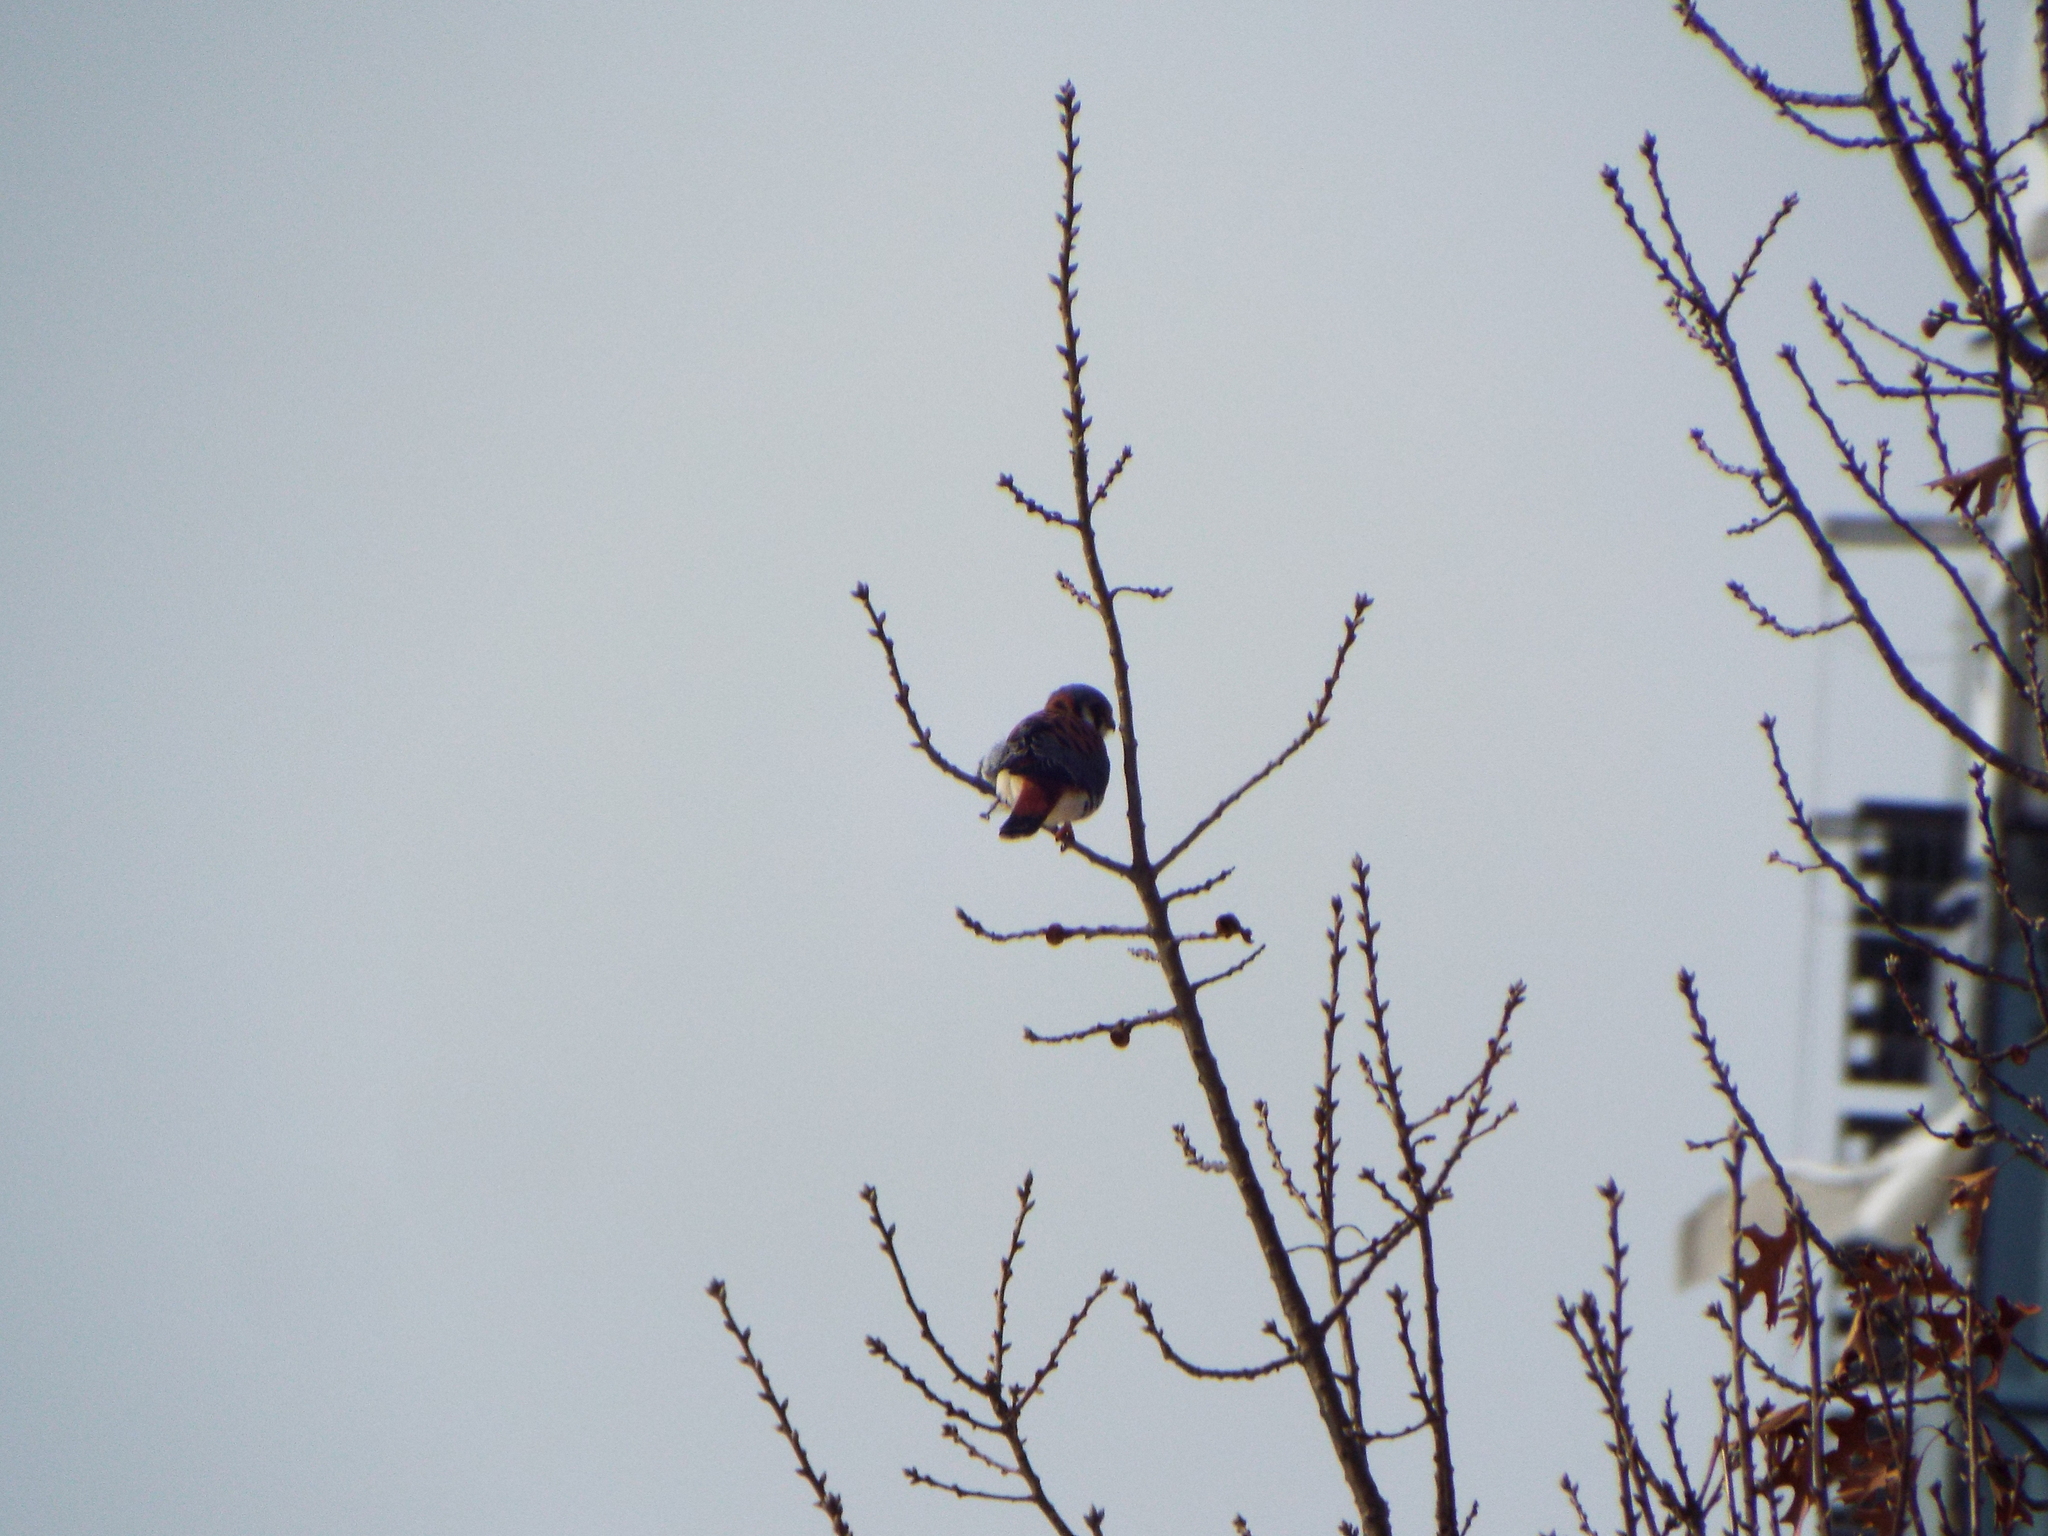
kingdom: Animalia
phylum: Chordata
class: Aves
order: Falconiformes
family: Falconidae
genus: Falco
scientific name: Falco sparverius
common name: American kestrel
